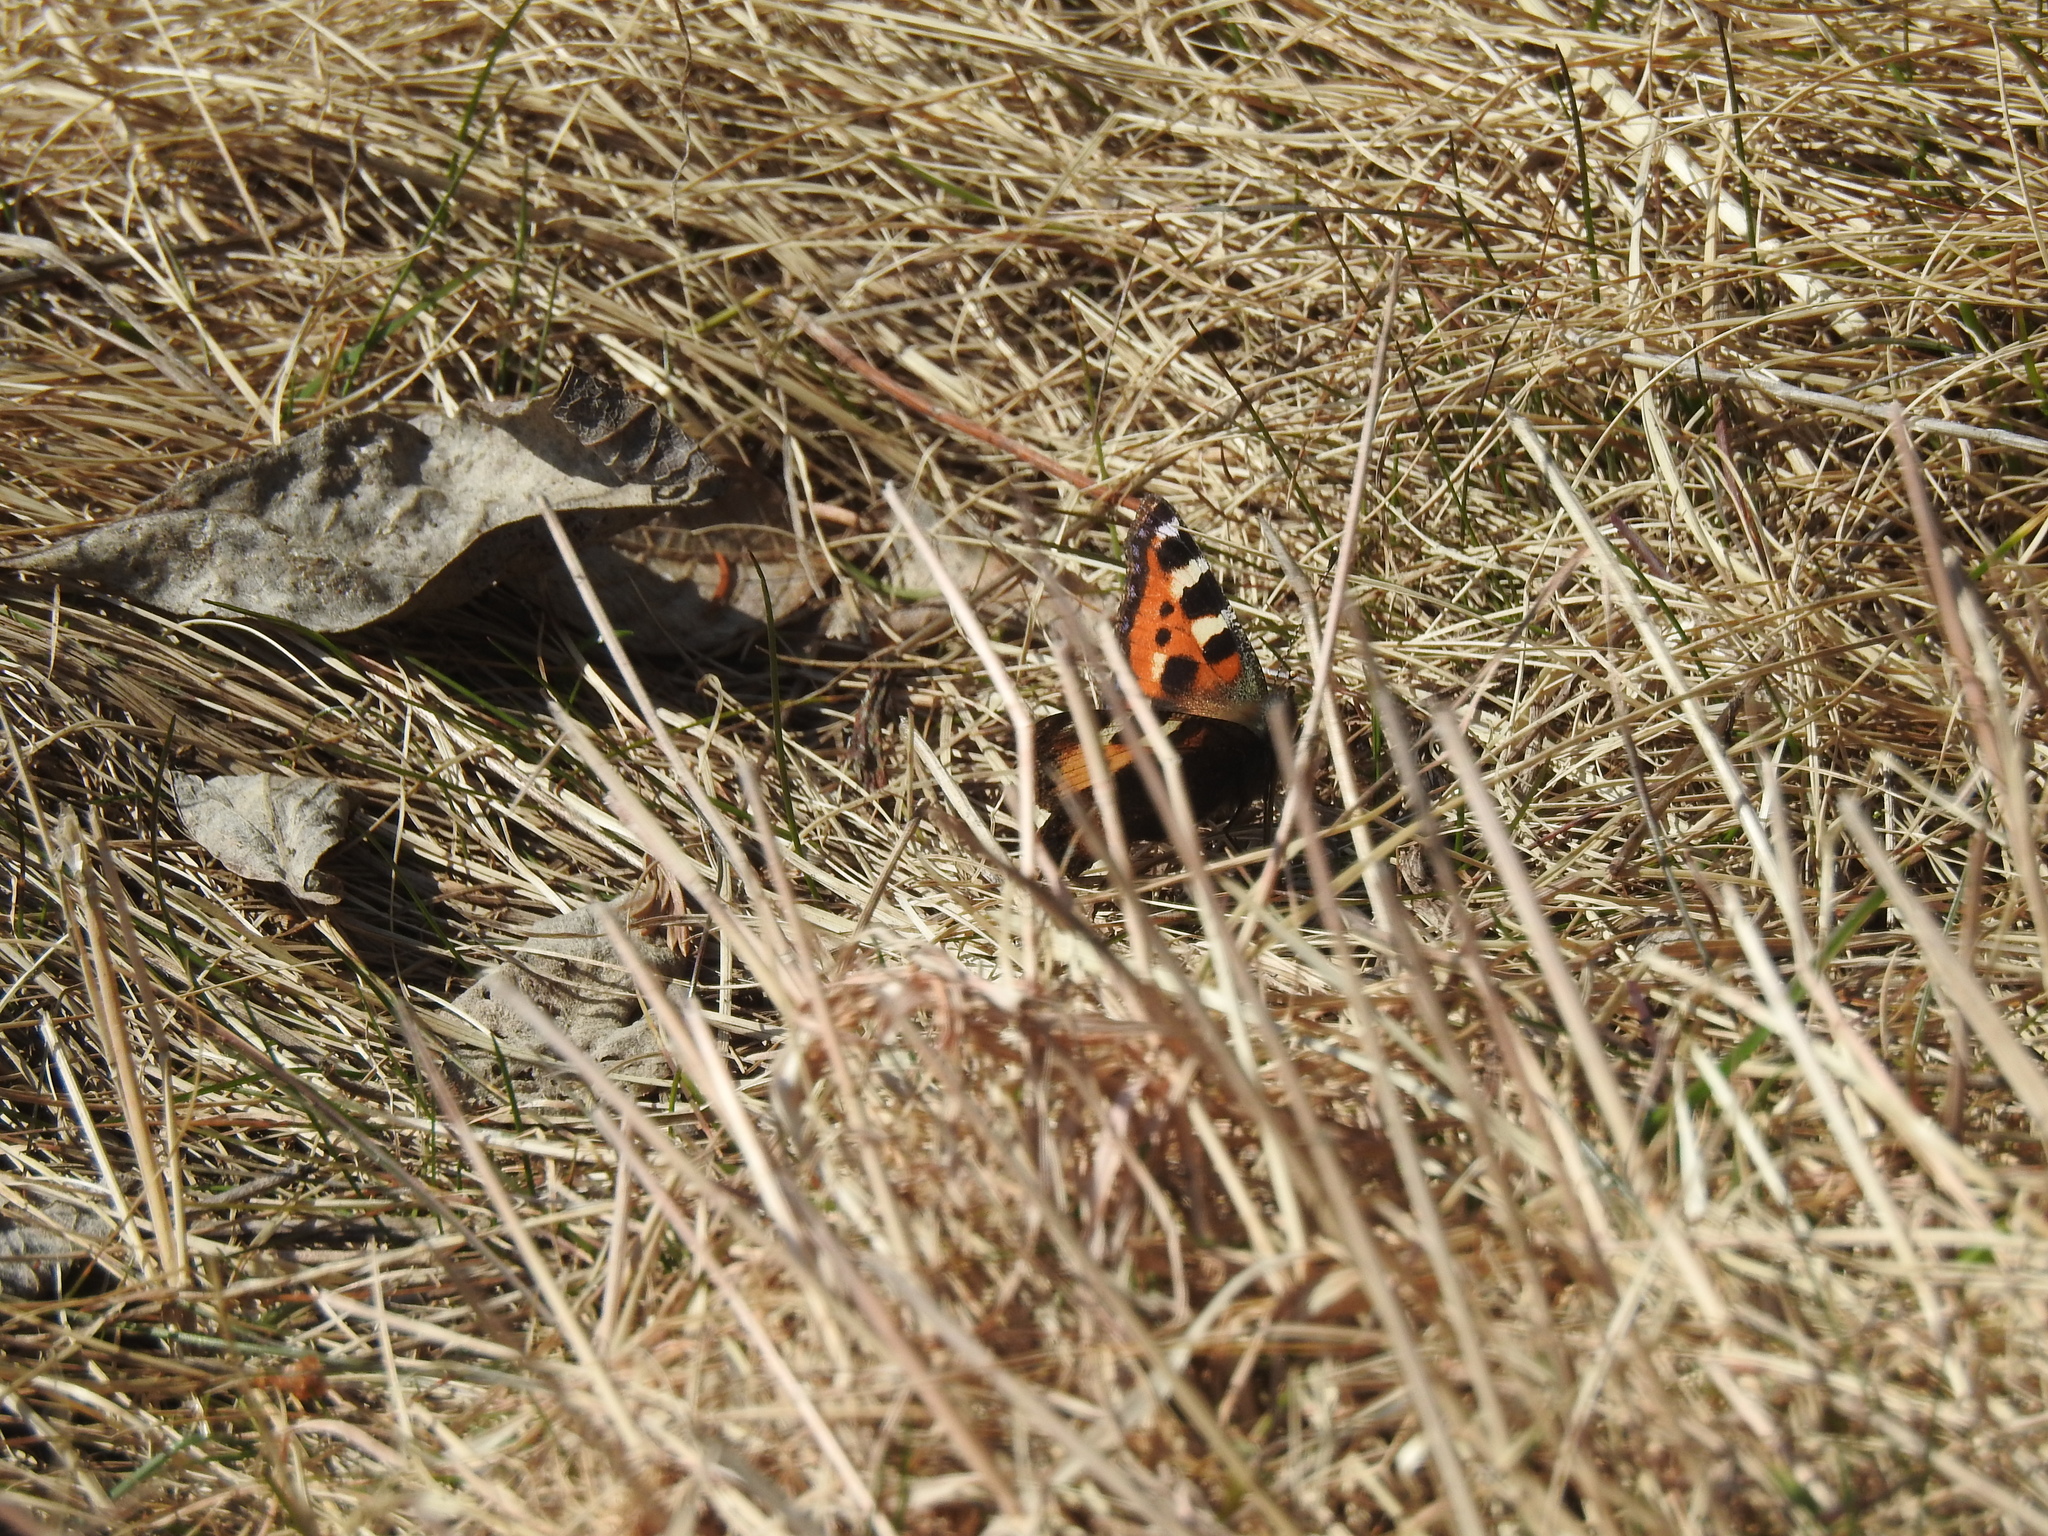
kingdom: Animalia
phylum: Arthropoda
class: Insecta
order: Lepidoptera
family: Nymphalidae
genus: Aglais
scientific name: Aglais urticae
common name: Small tortoiseshell
